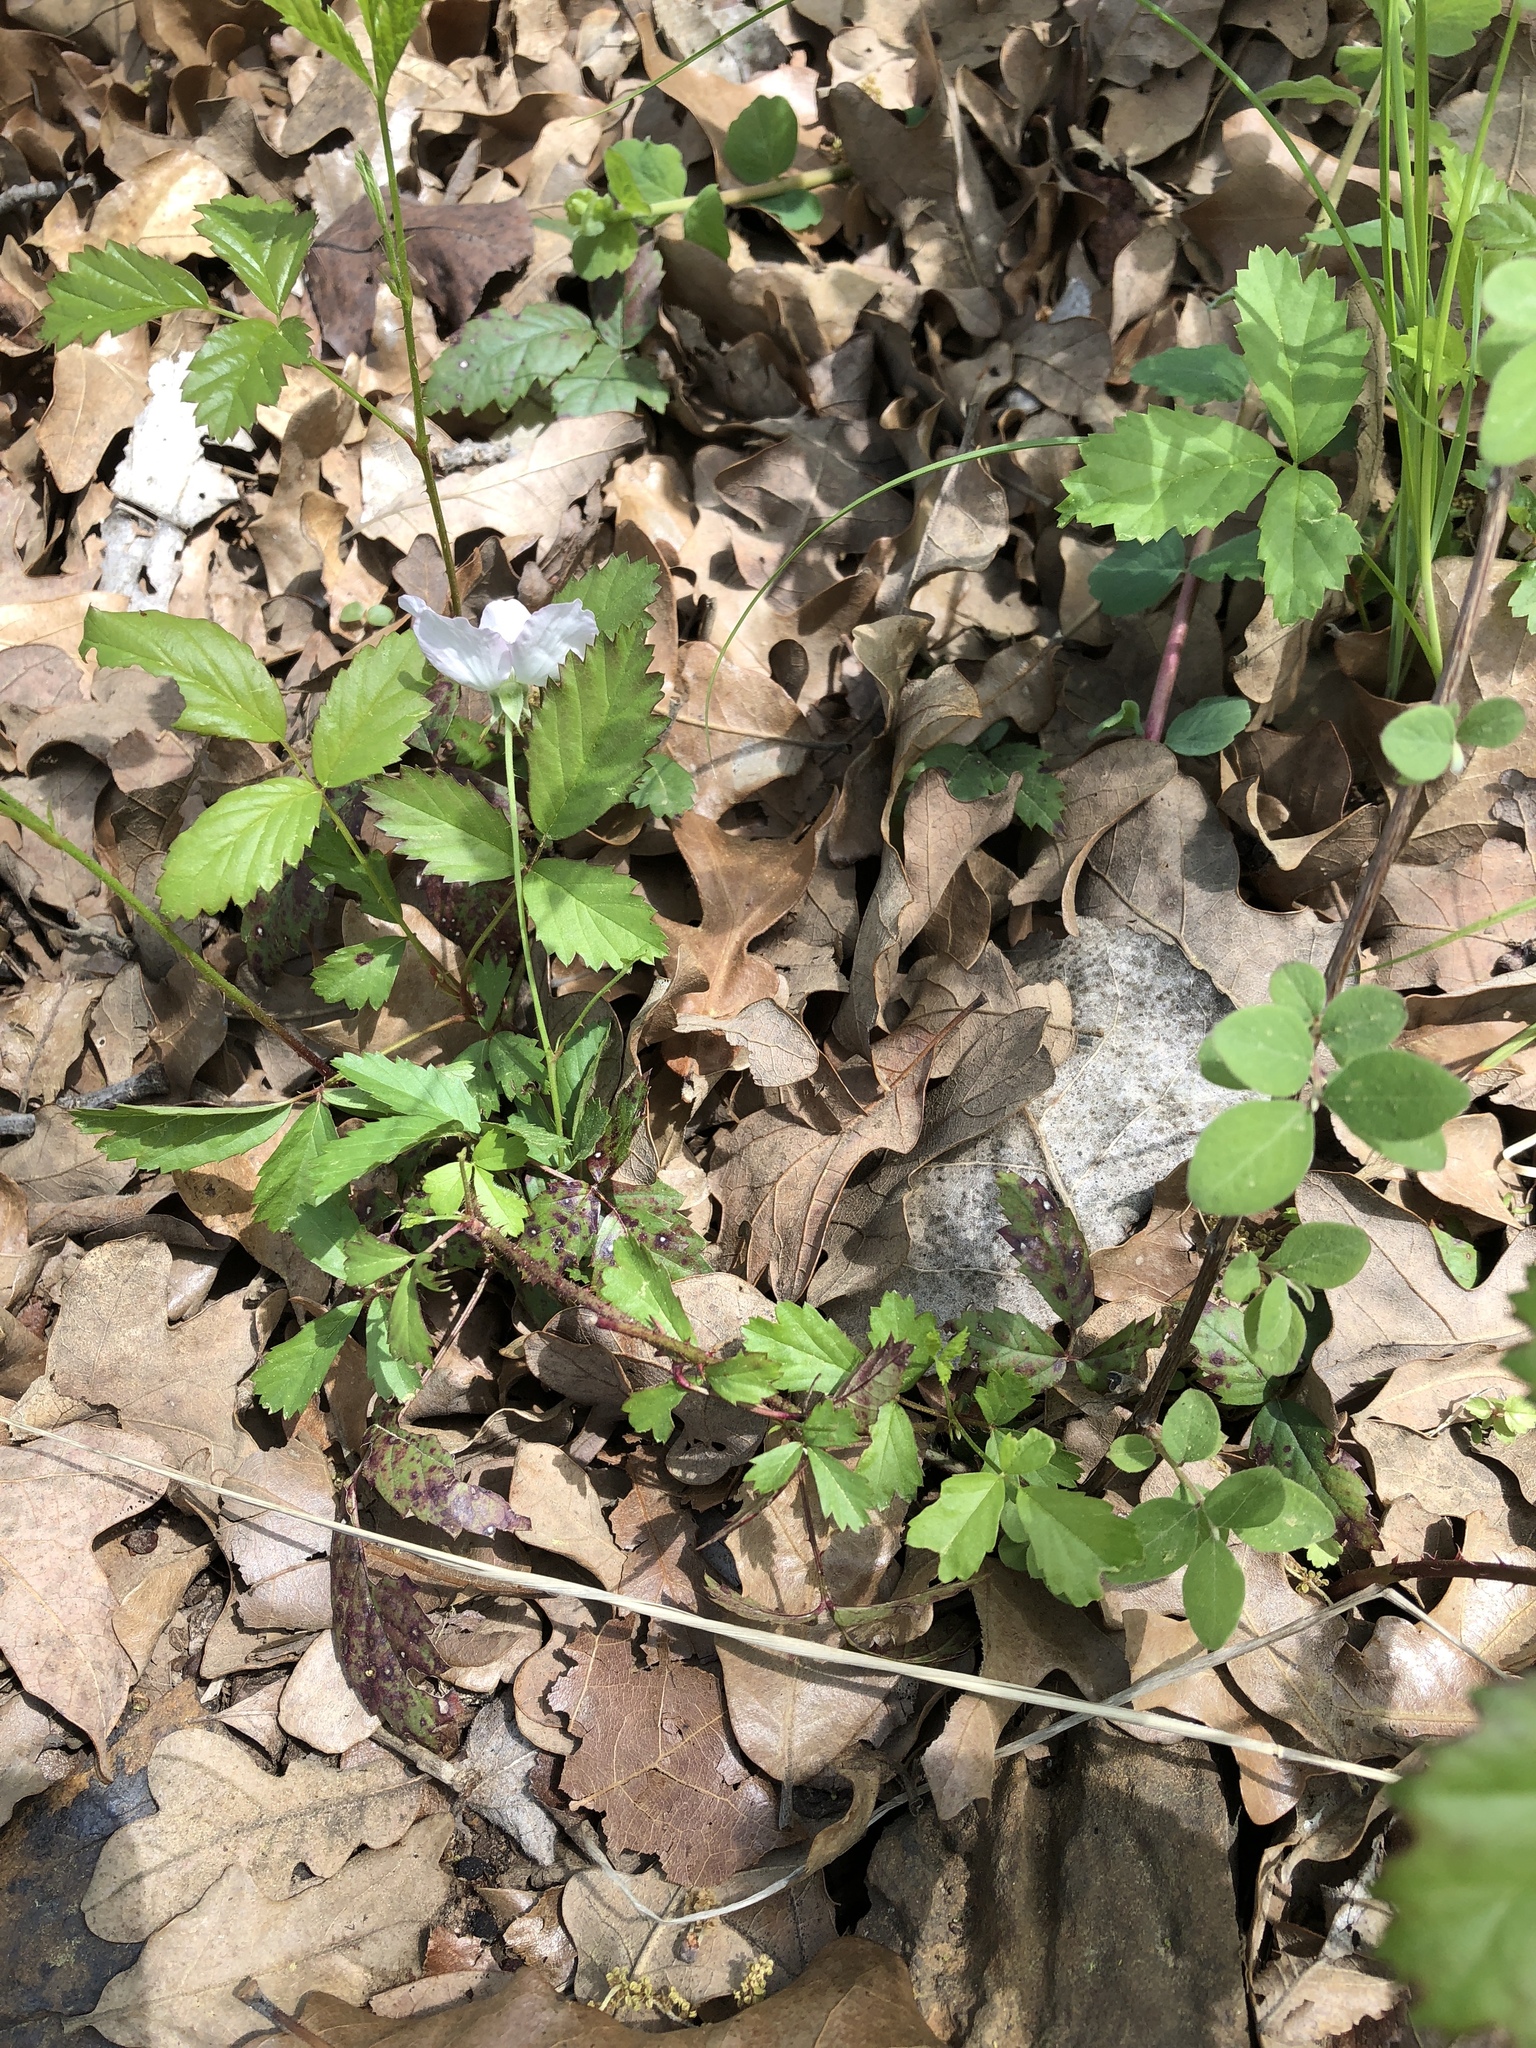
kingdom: Plantae
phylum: Tracheophyta
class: Magnoliopsida
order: Rosales
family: Rosaceae
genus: Rubus
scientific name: Rubus trivialis
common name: Southern dewberry
